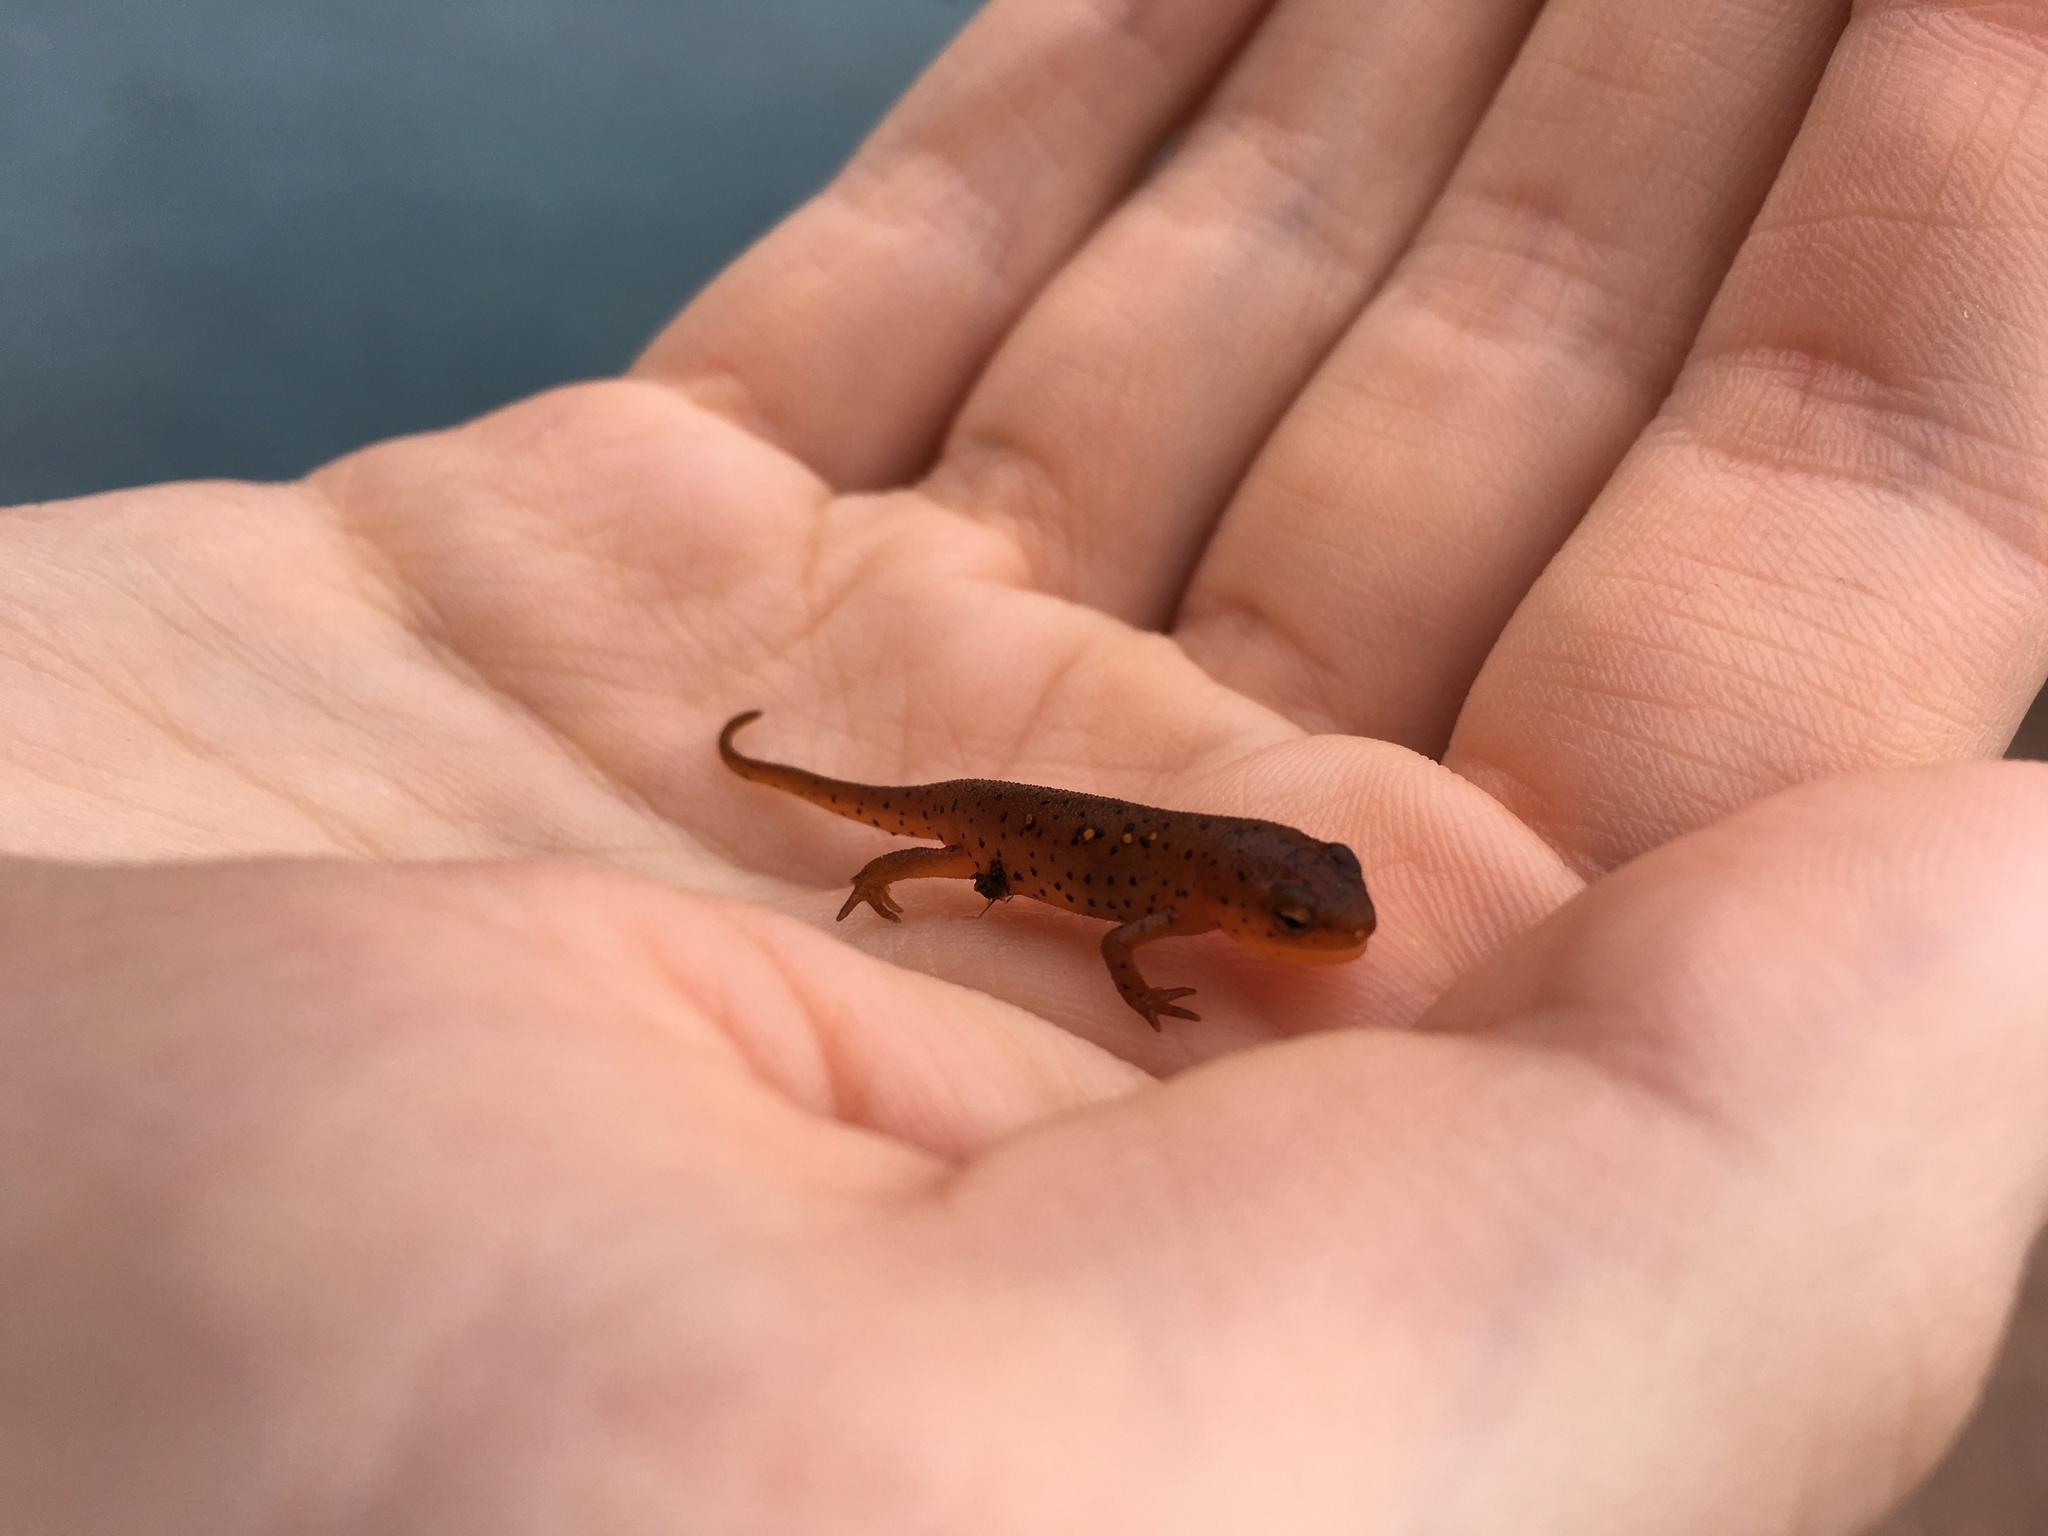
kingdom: Animalia
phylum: Chordata
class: Amphibia
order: Caudata
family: Salamandridae
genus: Notophthalmus
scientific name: Notophthalmus viridescens
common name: Eastern newt
